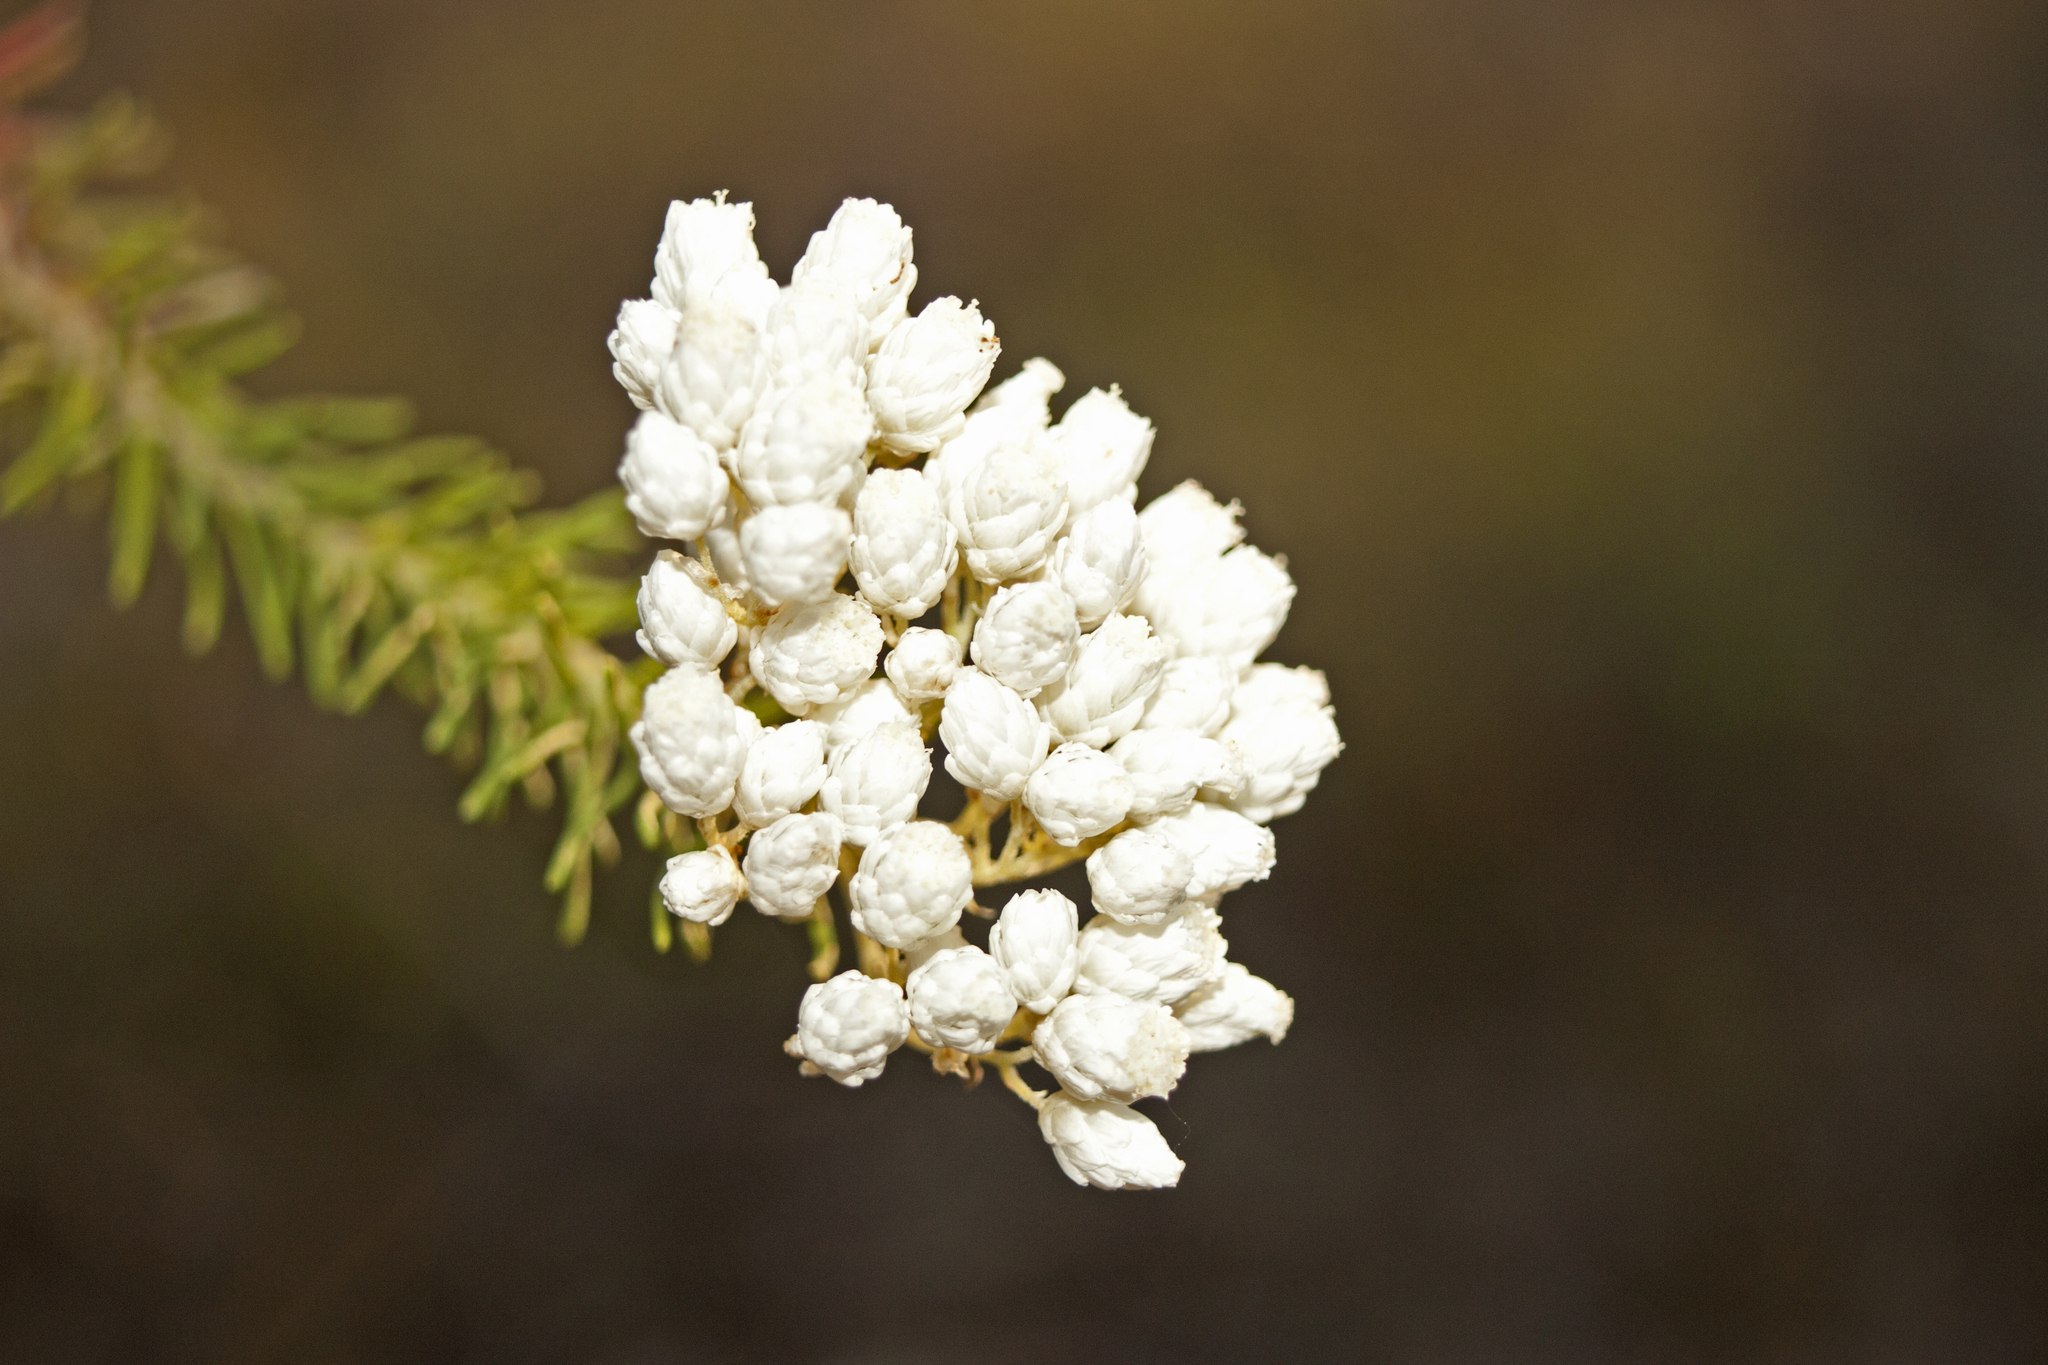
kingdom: Plantae
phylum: Tracheophyta
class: Magnoliopsida
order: Asterales
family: Asteraceae
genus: Ozothamnus
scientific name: Ozothamnus diosmifolius
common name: White-dogwood
